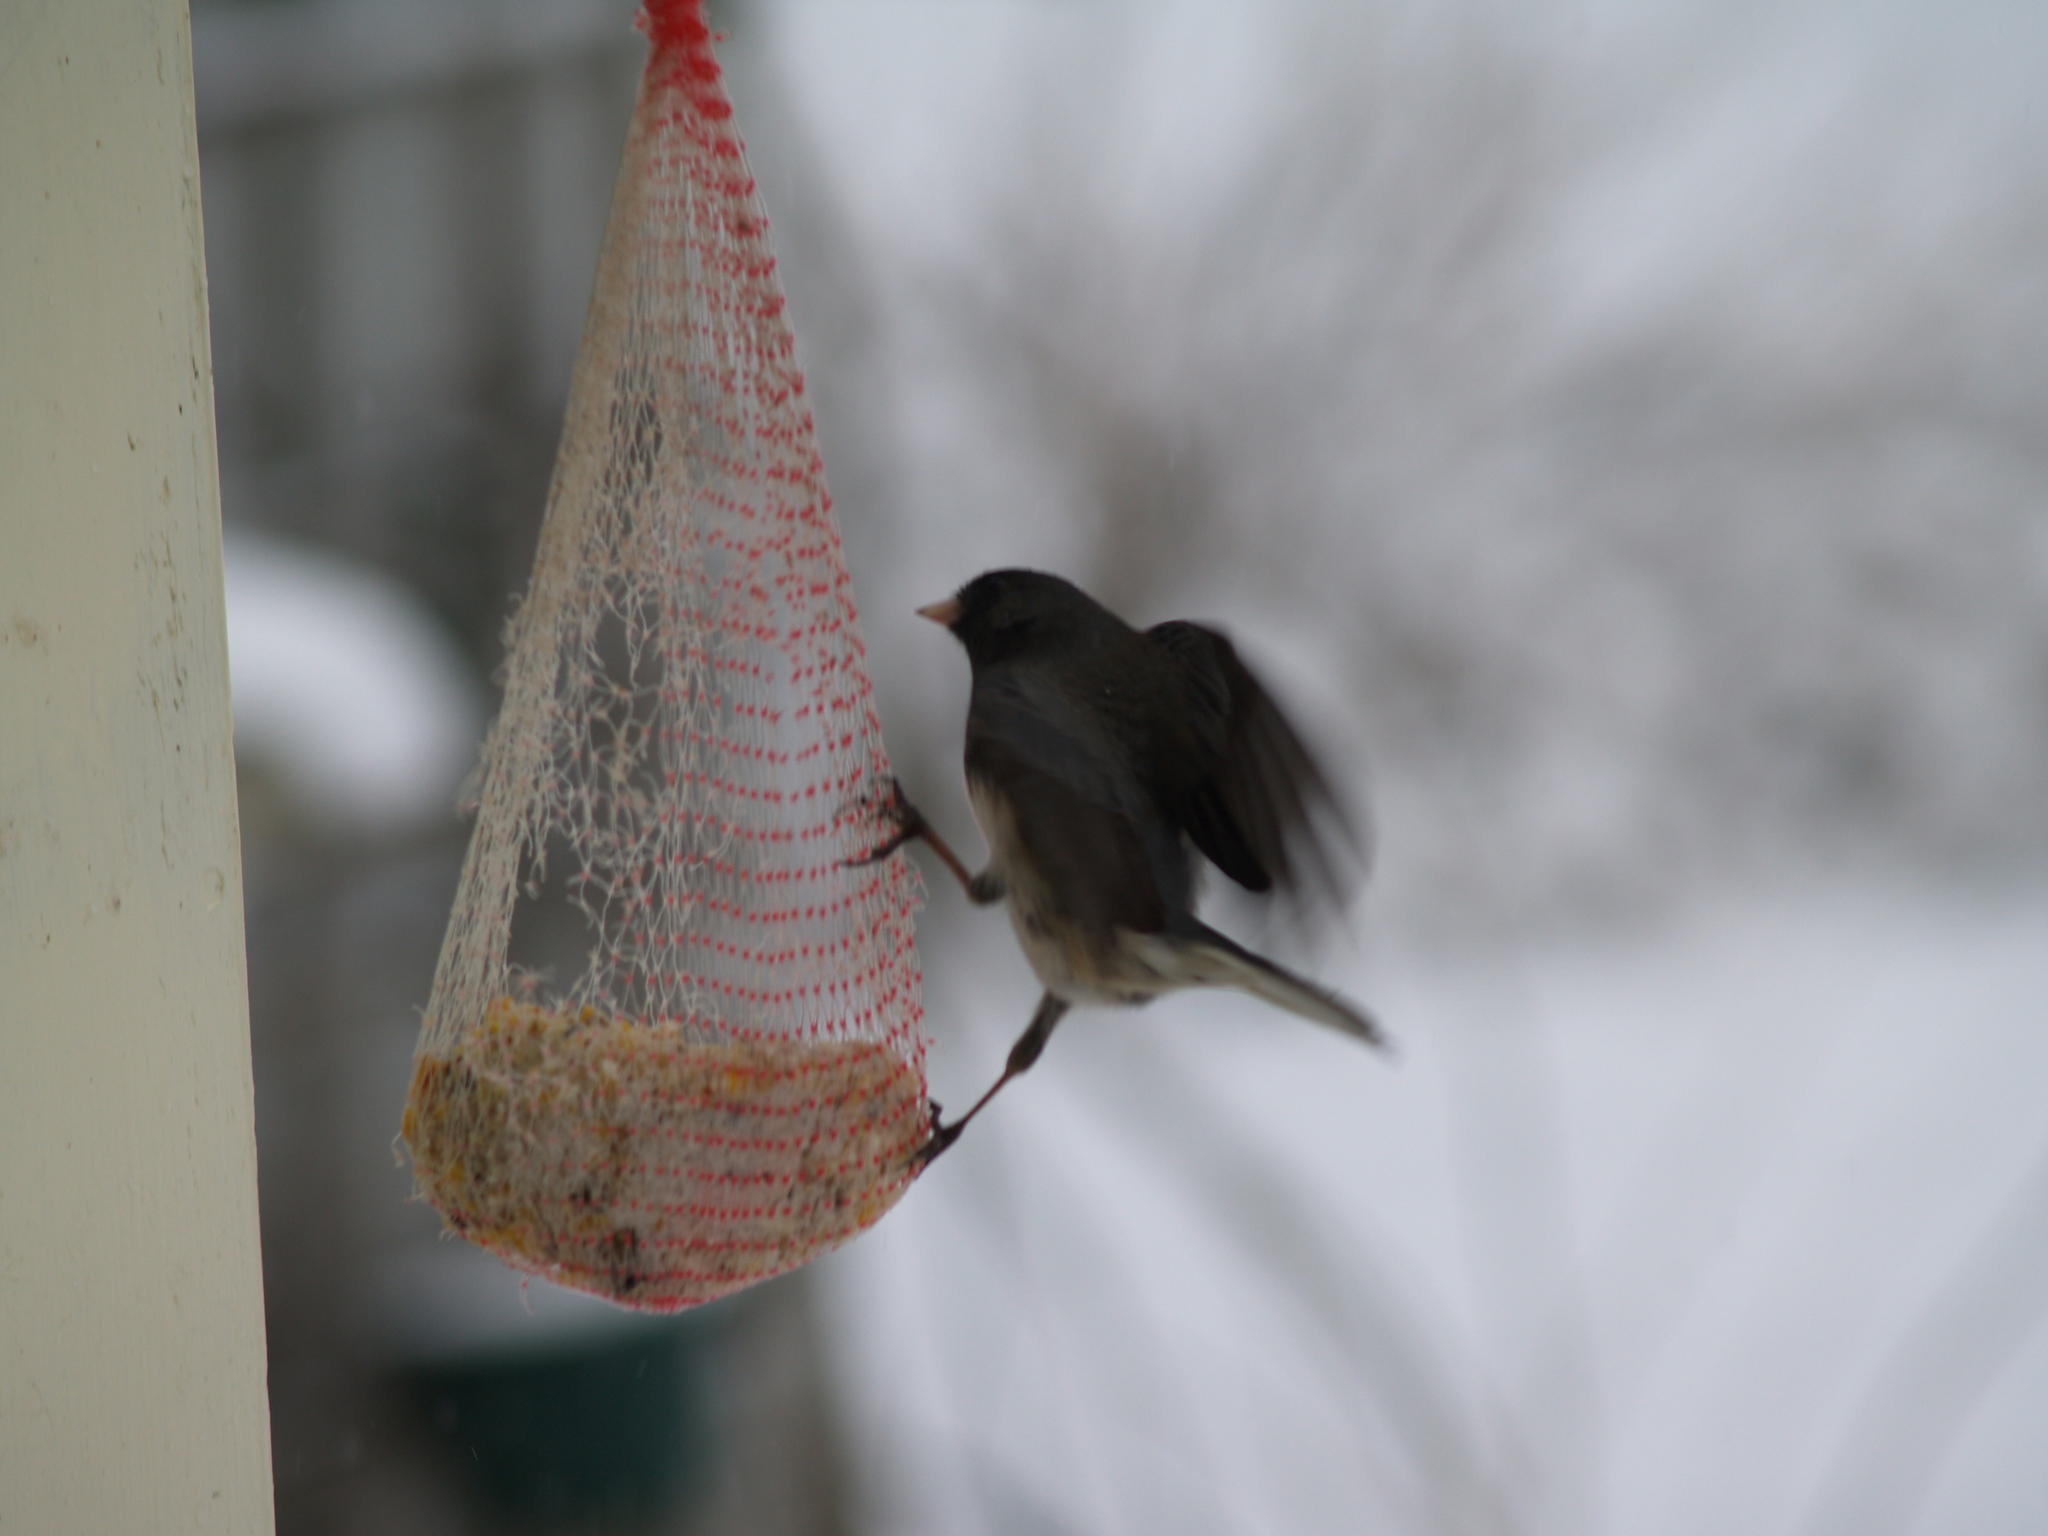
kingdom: Animalia
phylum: Chordata
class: Aves
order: Passeriformes
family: Passerellidae
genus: Junco
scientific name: Junco hyemalis
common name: Dark-eyed junco
